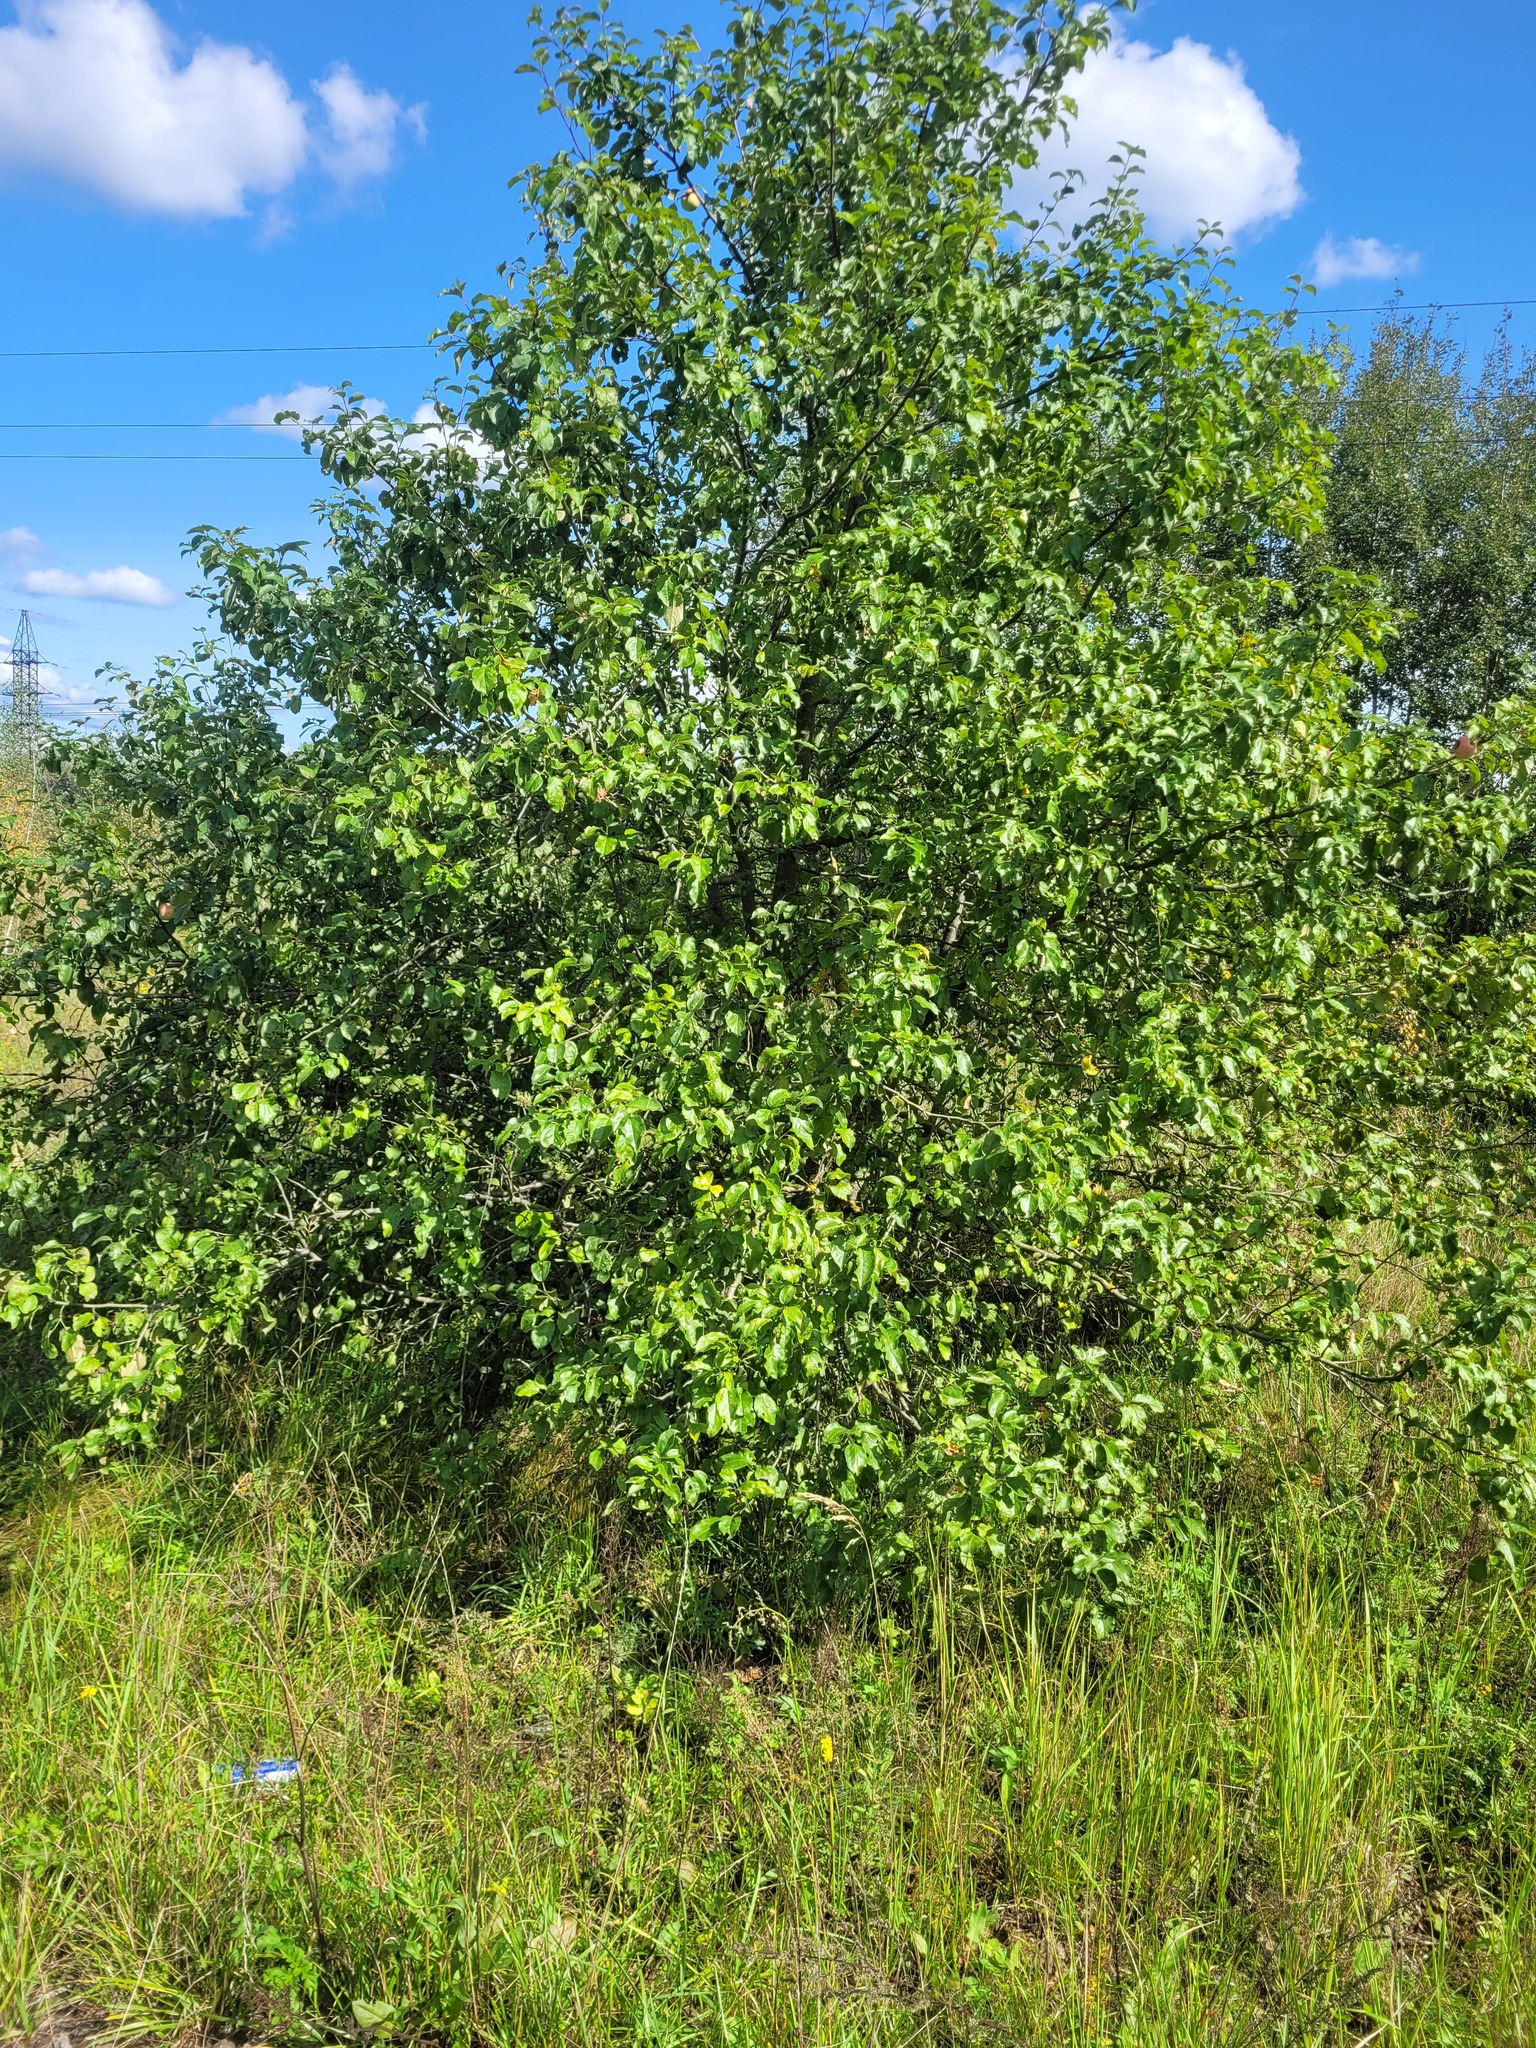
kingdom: Plantae
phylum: Tracheophyta
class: Magnoliopsida
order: Rosales
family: Rosaceae
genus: Malus
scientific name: Malus domestica
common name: Apple
